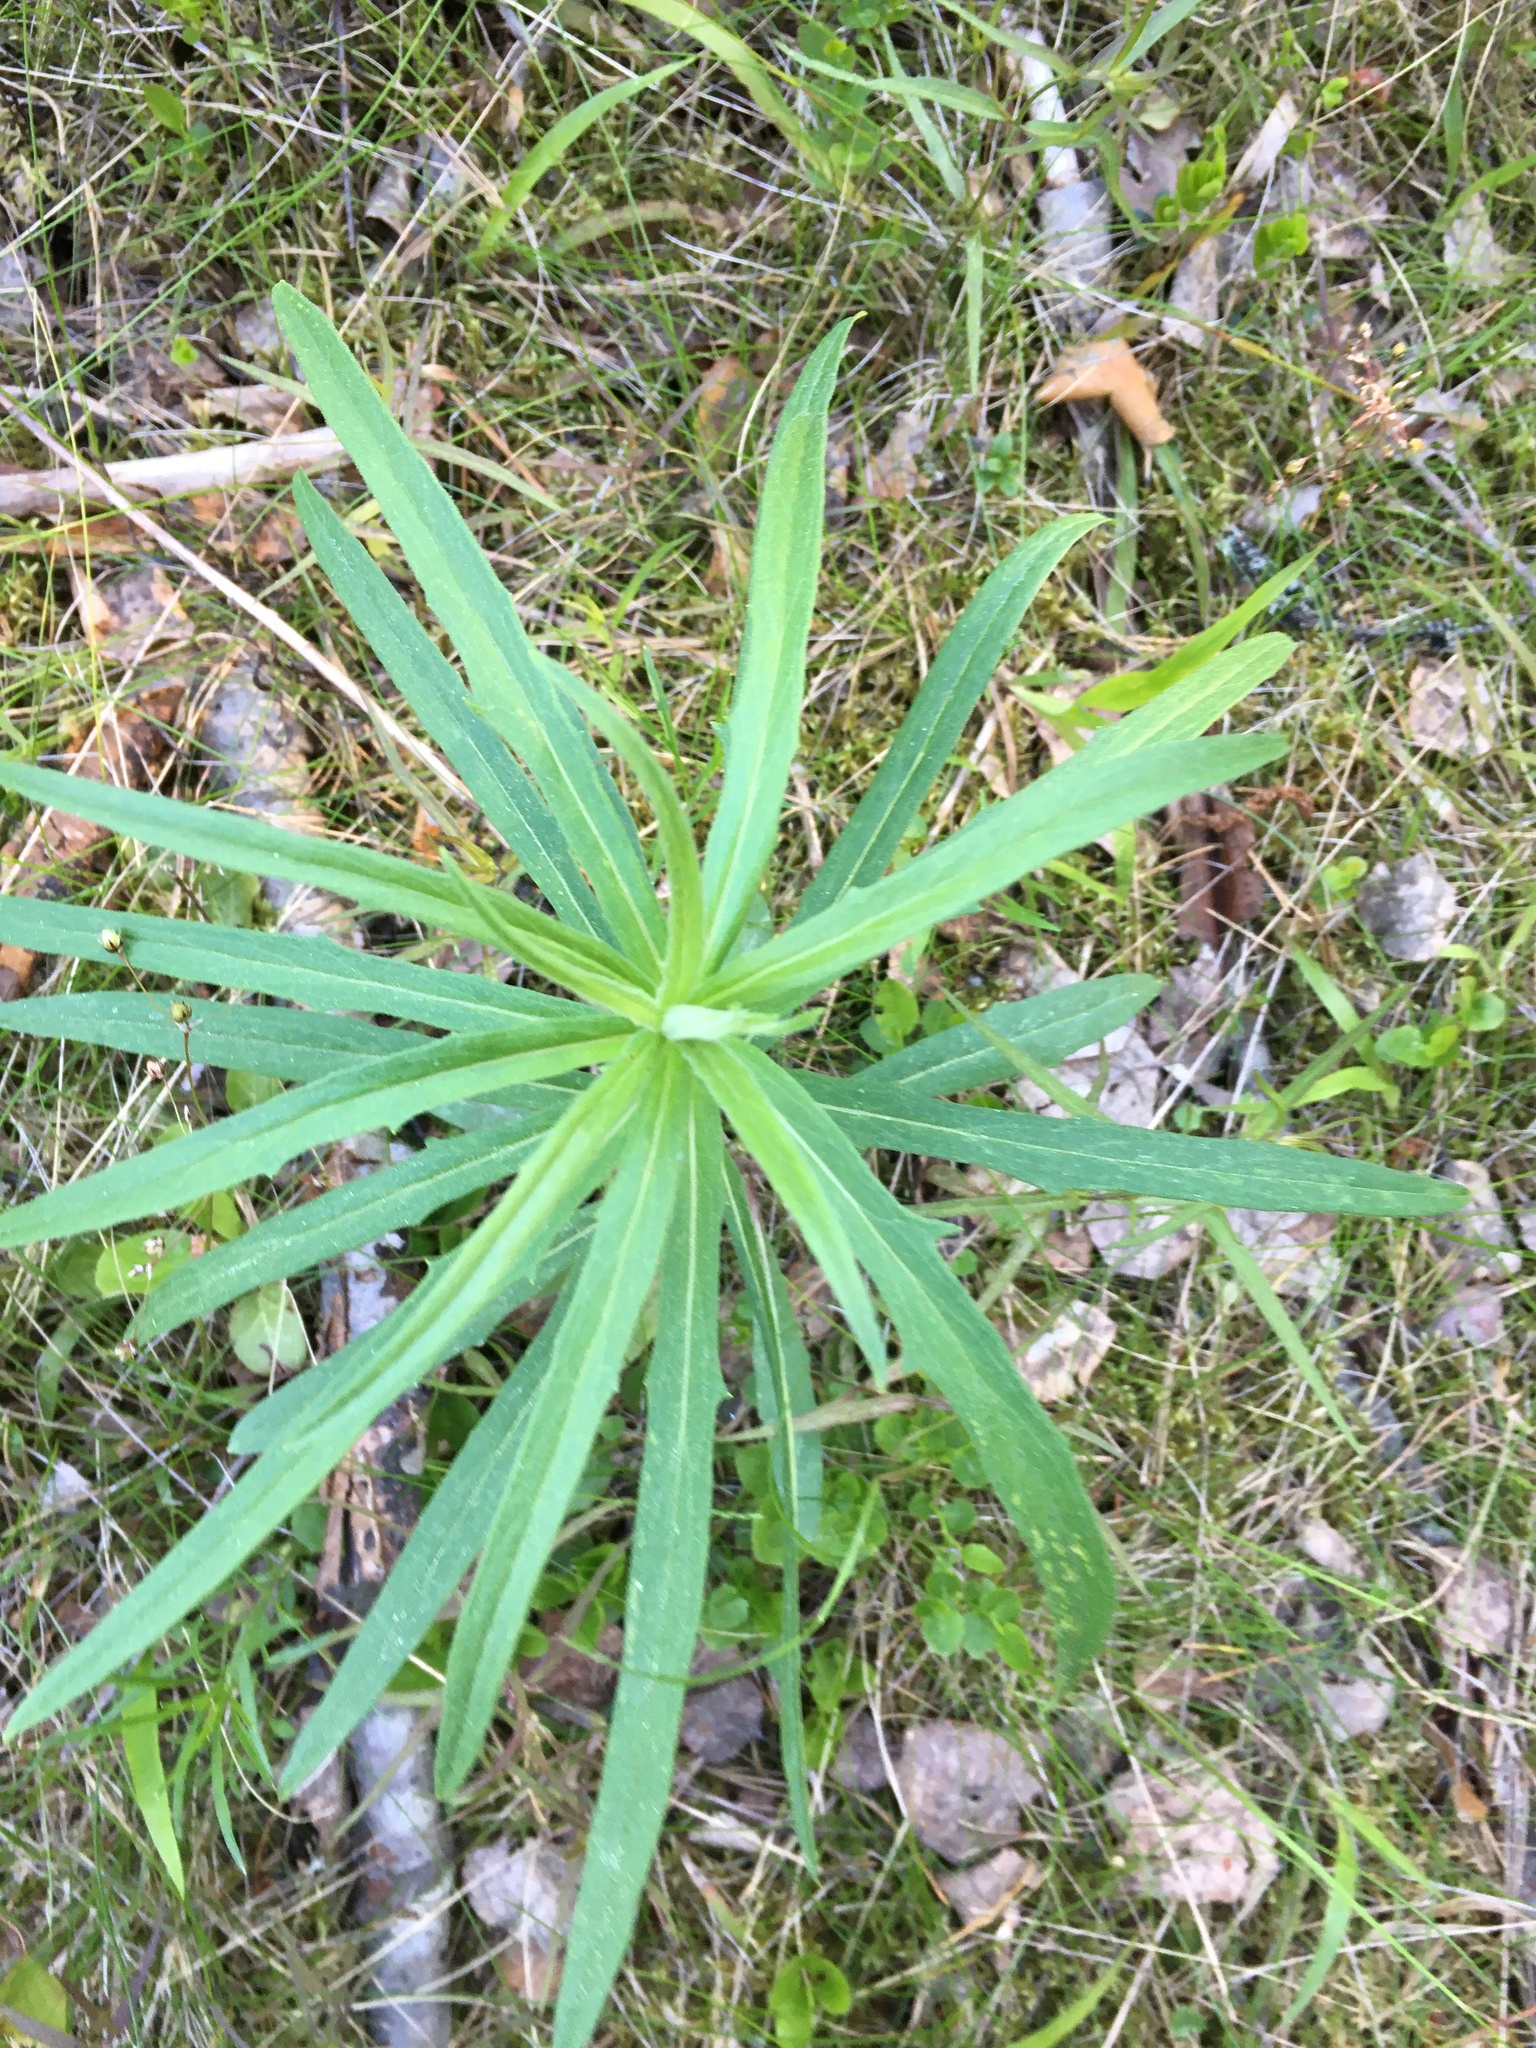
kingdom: Plantae
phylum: Tracheophyta
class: Magnoliopsida
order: Asterales
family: Asteraceae
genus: Hieracium
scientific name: Hieracium umbellatum
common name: Northern hawkweed
